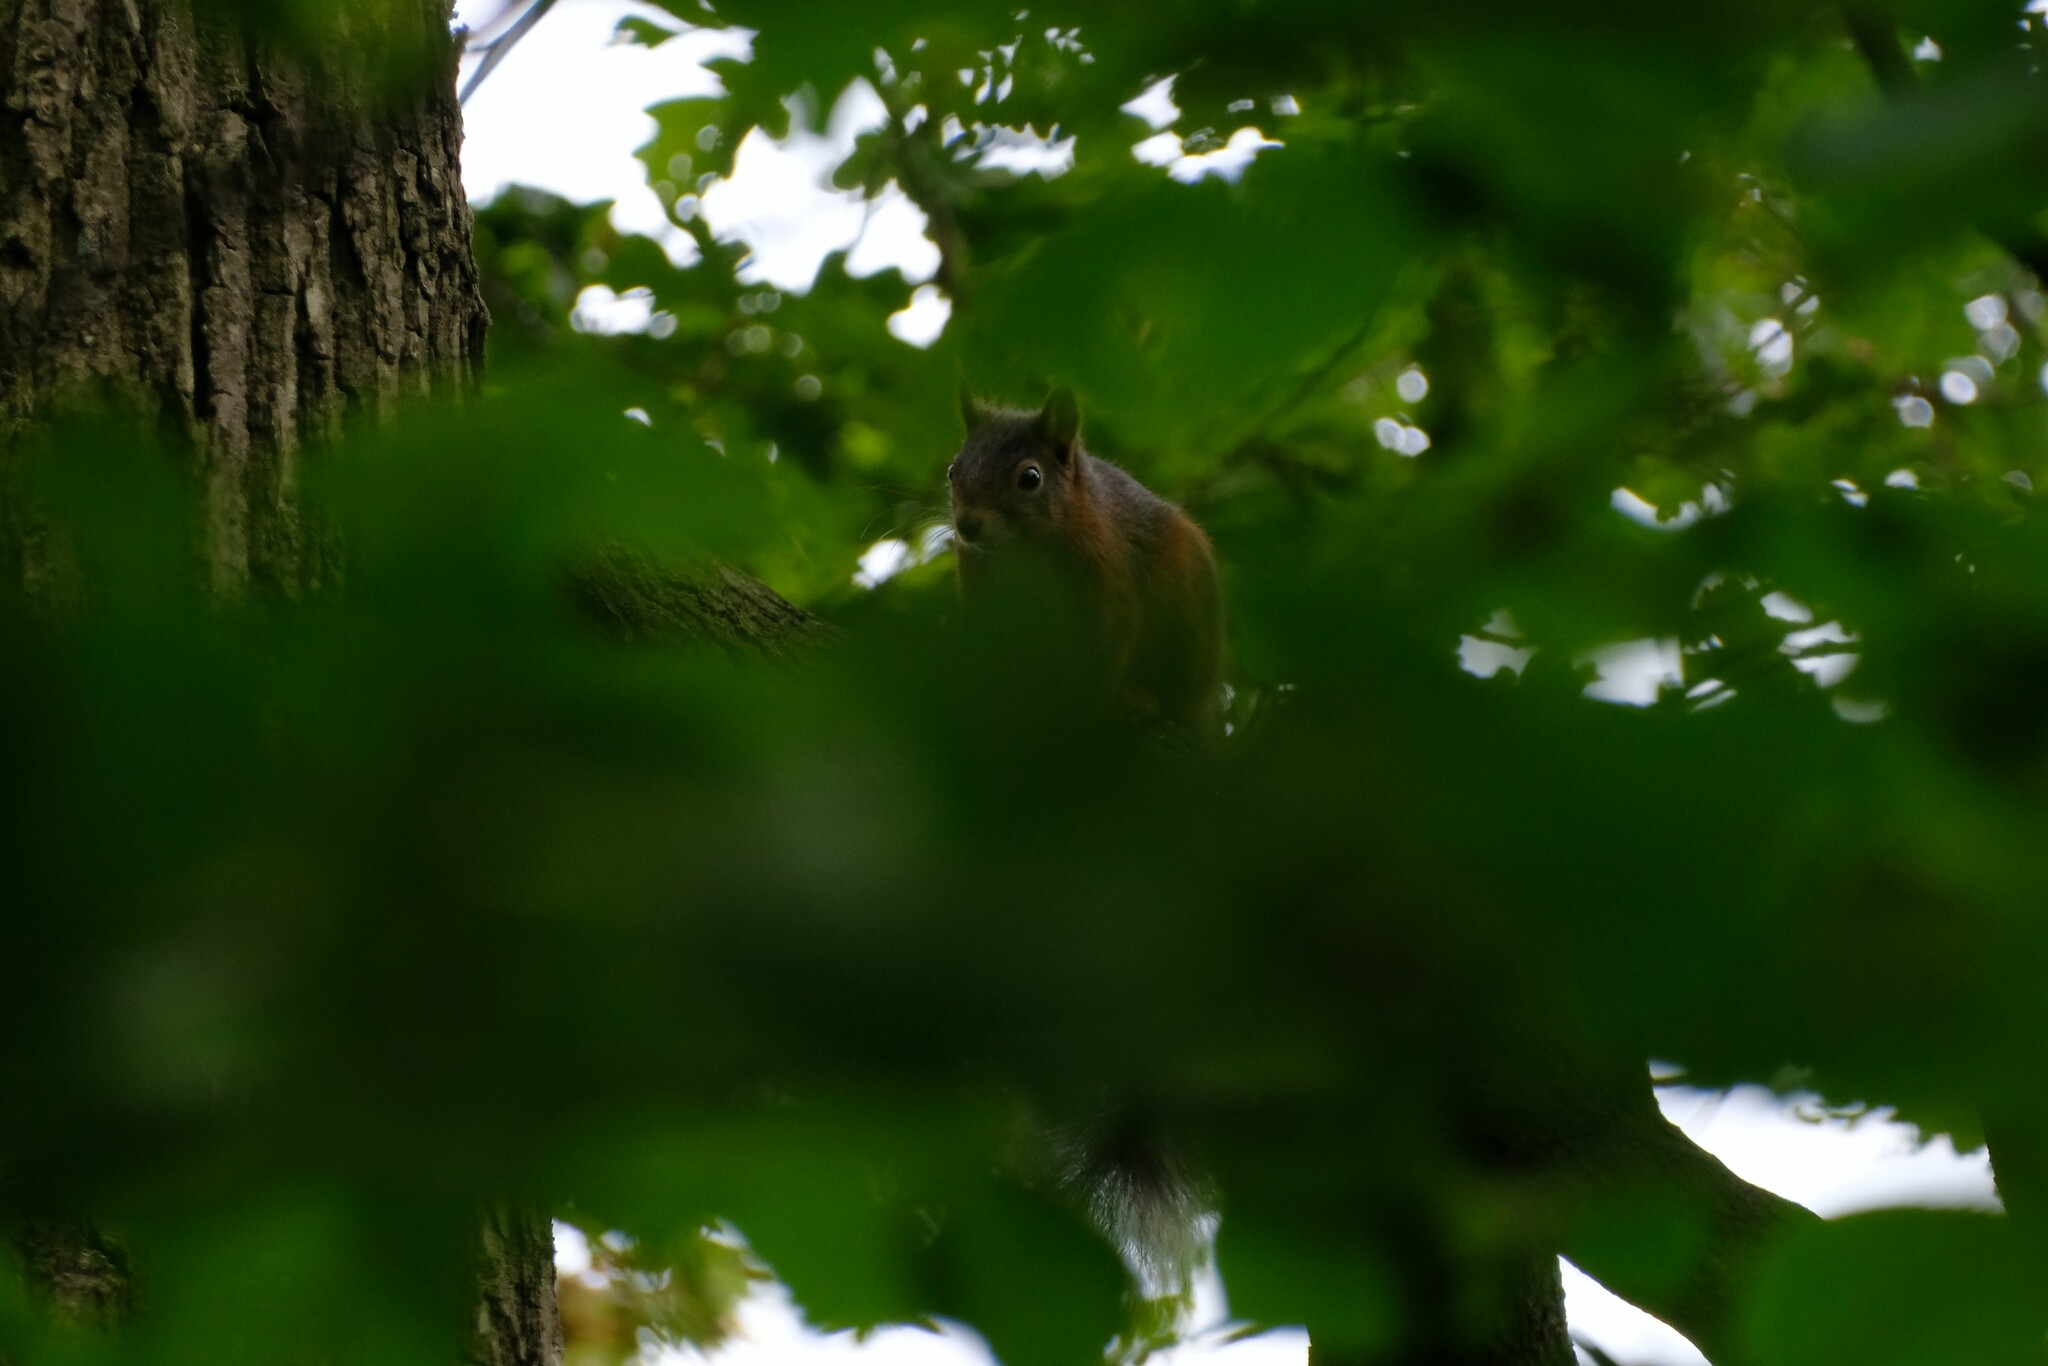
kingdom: Animalia
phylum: Chordata
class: Mammalia
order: Rodentia
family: Sciuridae
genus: Sciurus
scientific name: Sciurus vulgaris
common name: Eurasian red squirrel
